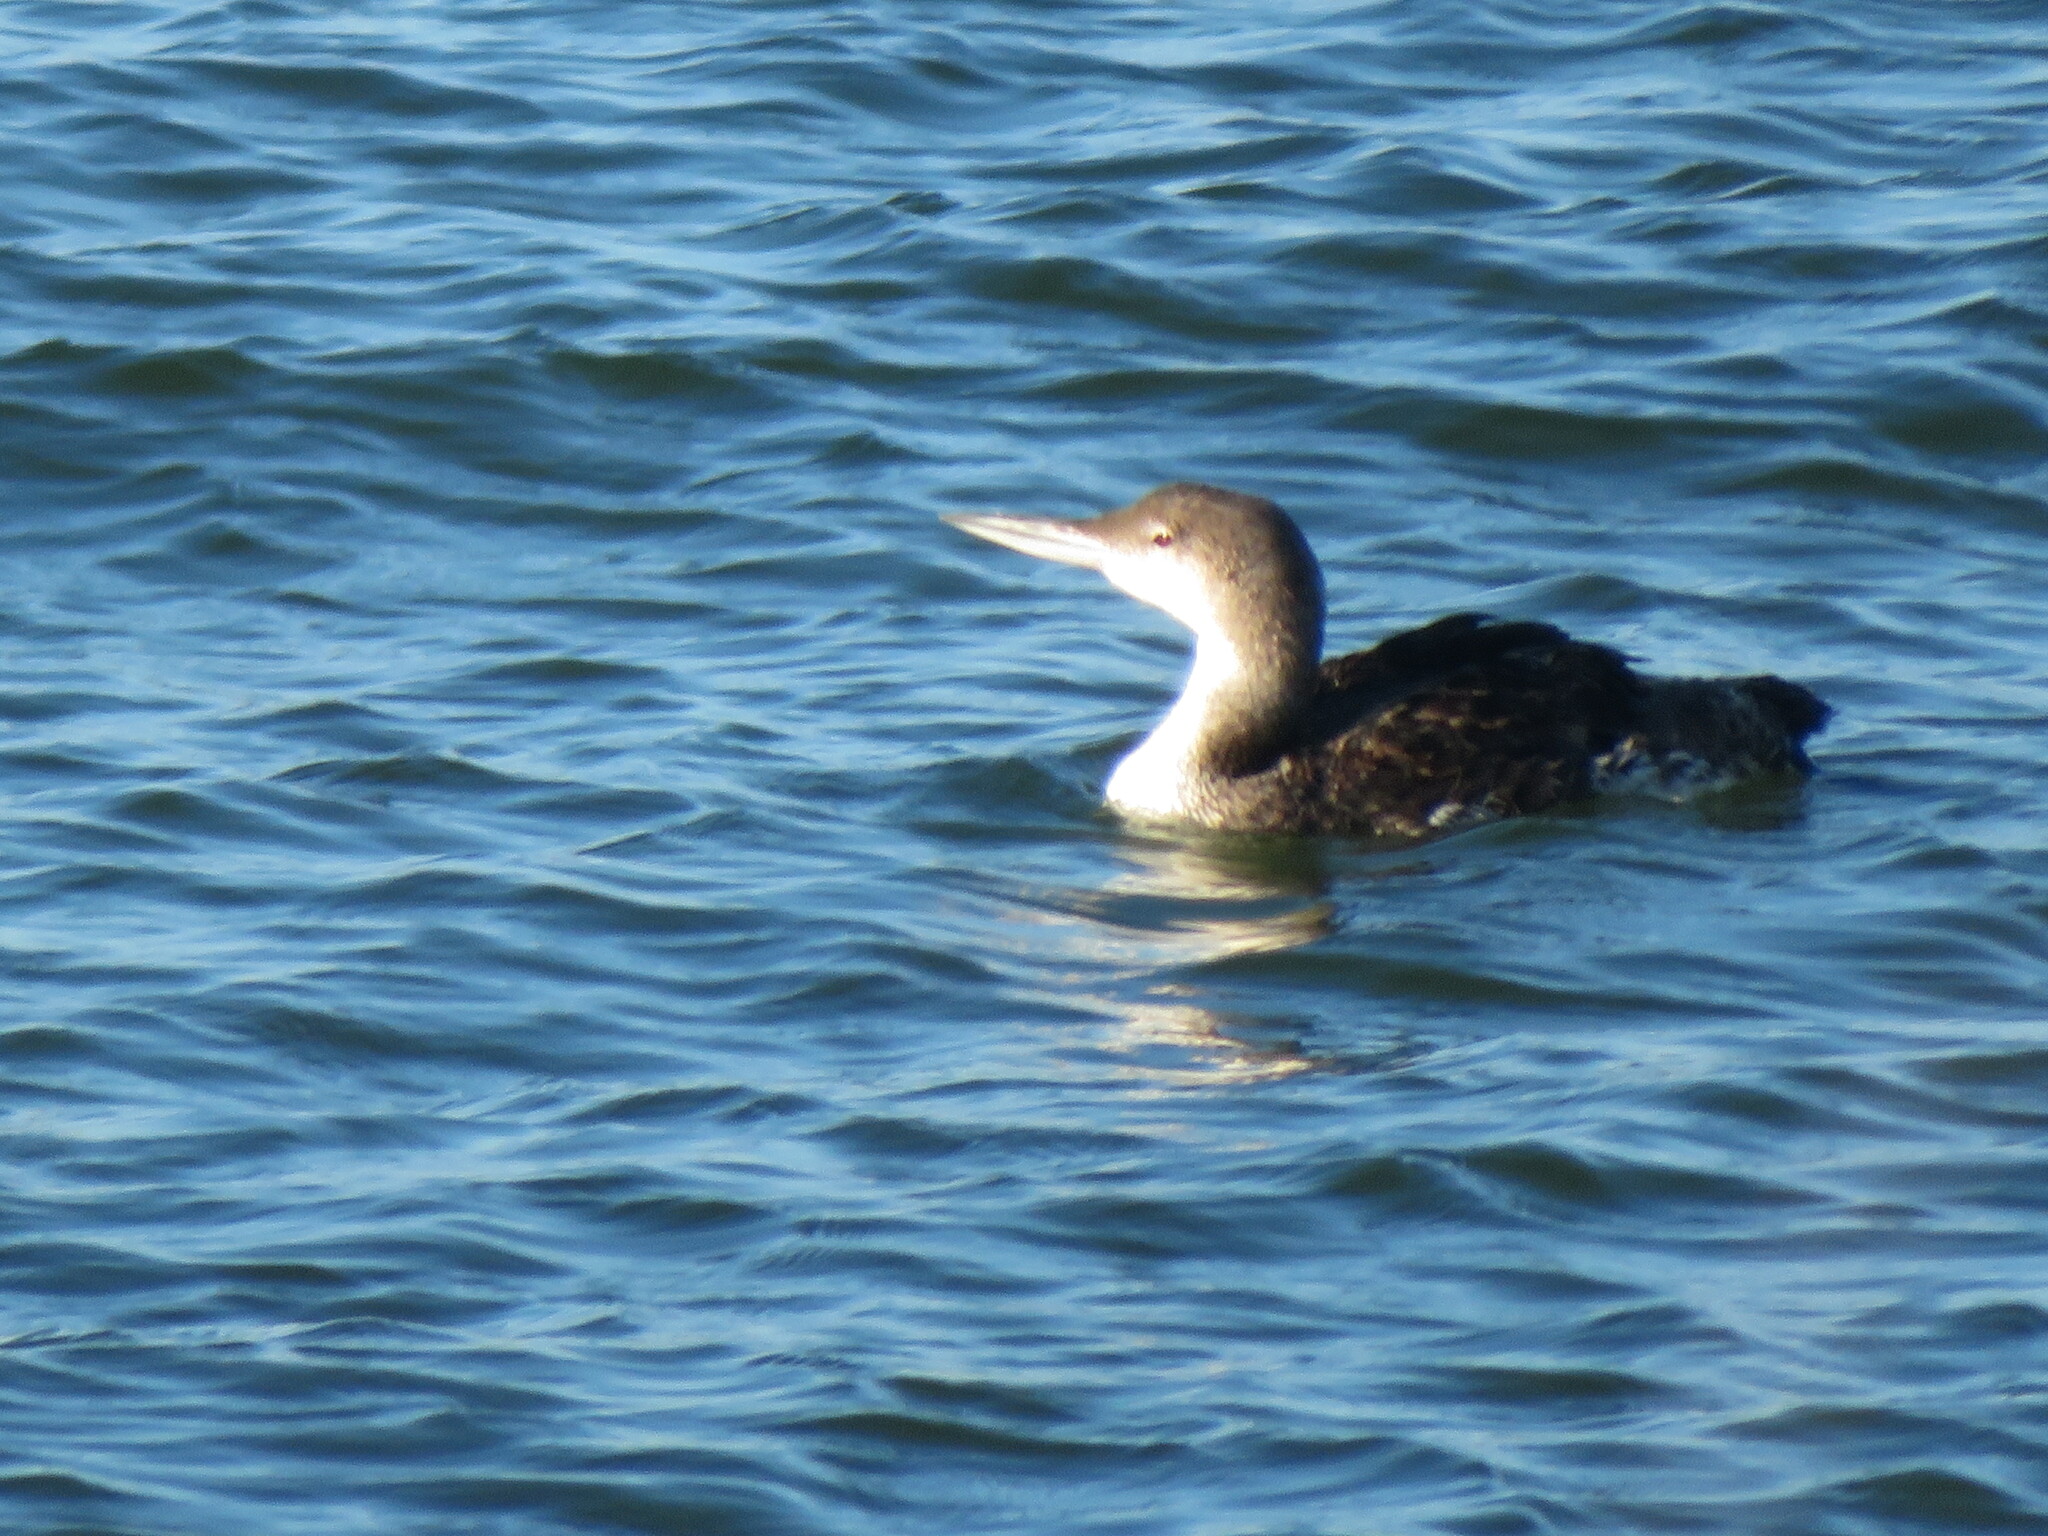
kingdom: Animalia
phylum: Chordata
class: Aves
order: Gaviiformes
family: Gaviidae
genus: Gavia
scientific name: Gavia immer
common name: Common loon
